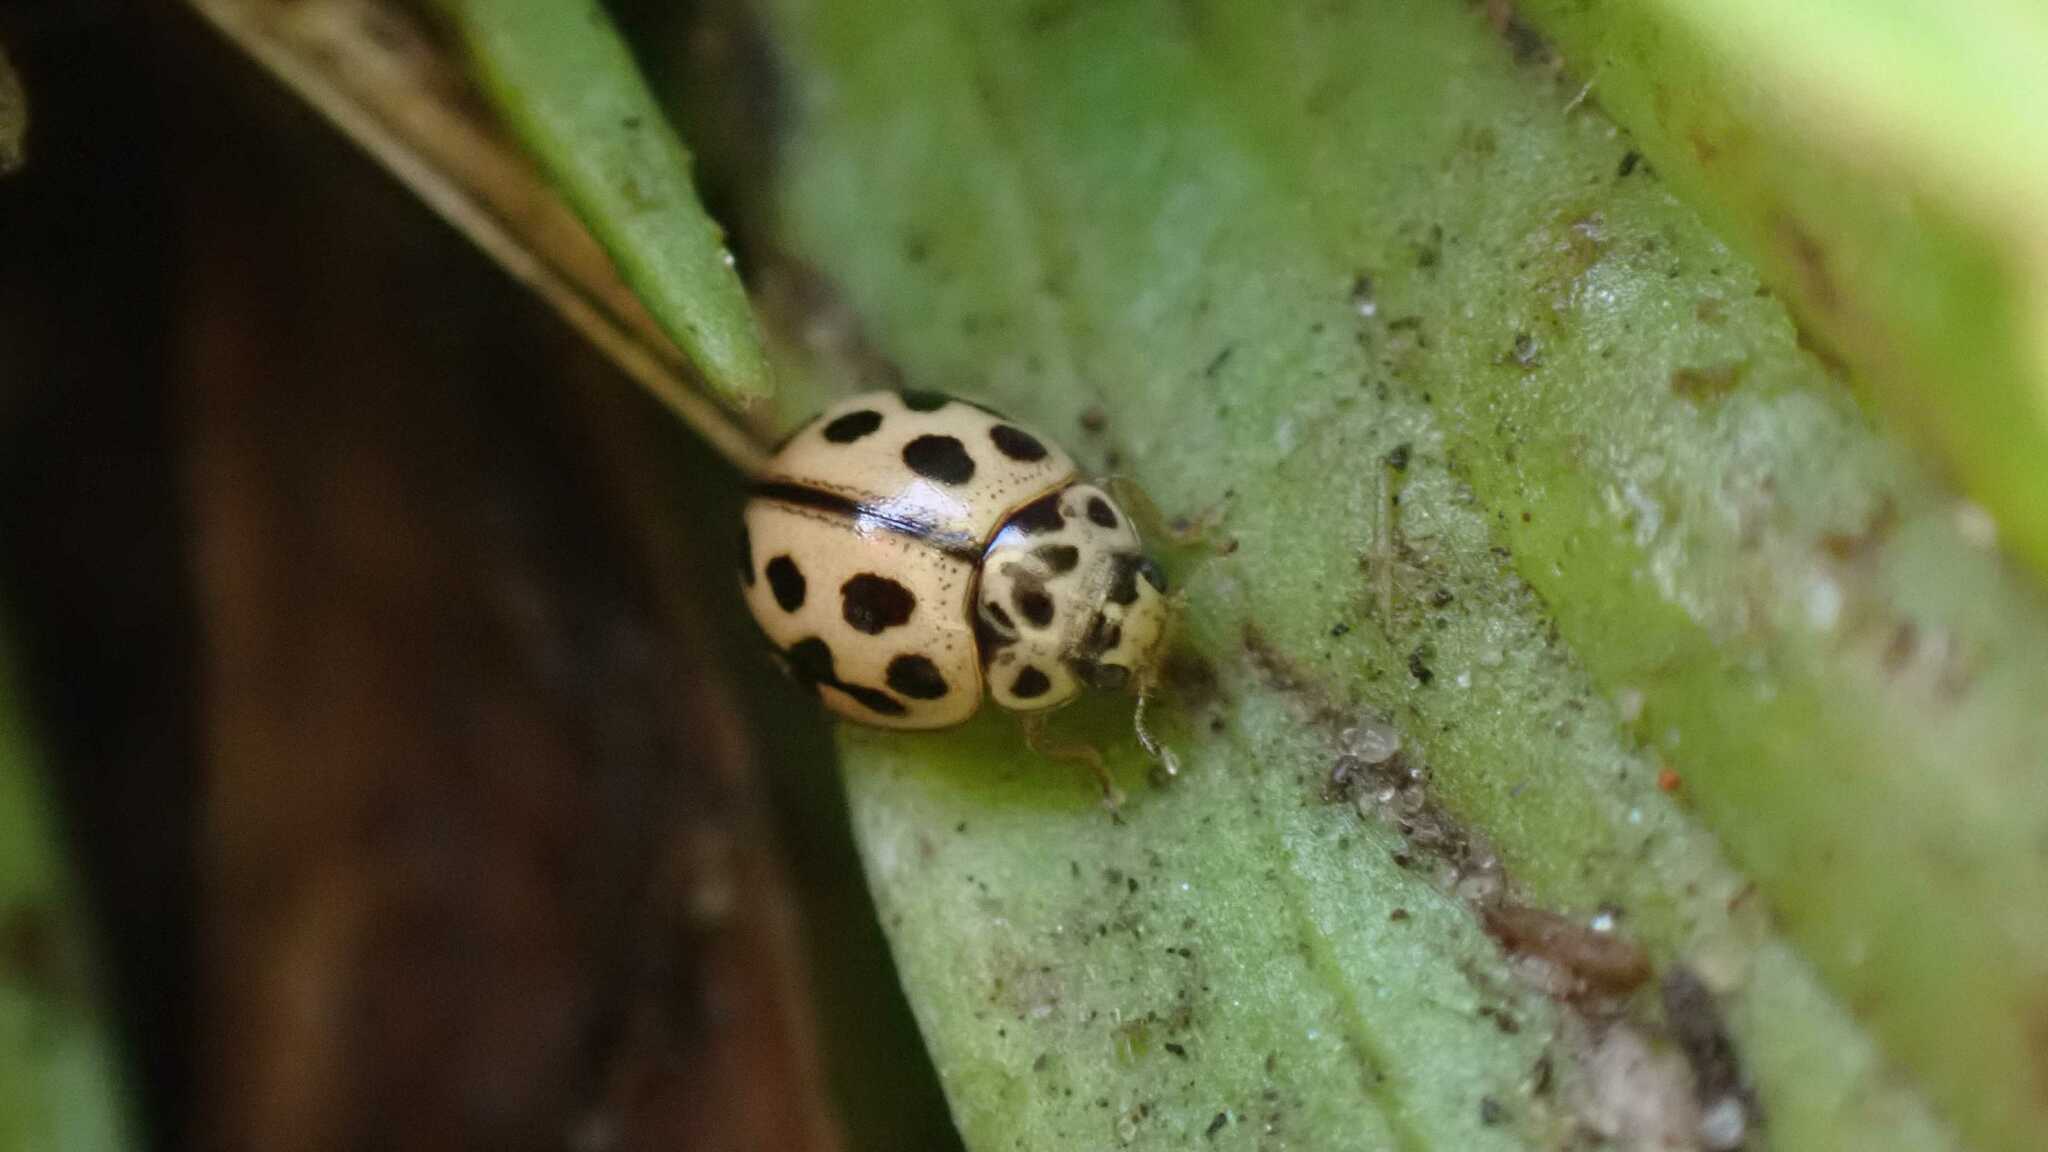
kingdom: Animalia
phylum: Arthropoda
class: Insecta
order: Coleoptera
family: Coccinellidae
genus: Tytthaspis
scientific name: Tytthaspis sedecimpunctata
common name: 16-spot ladybird
